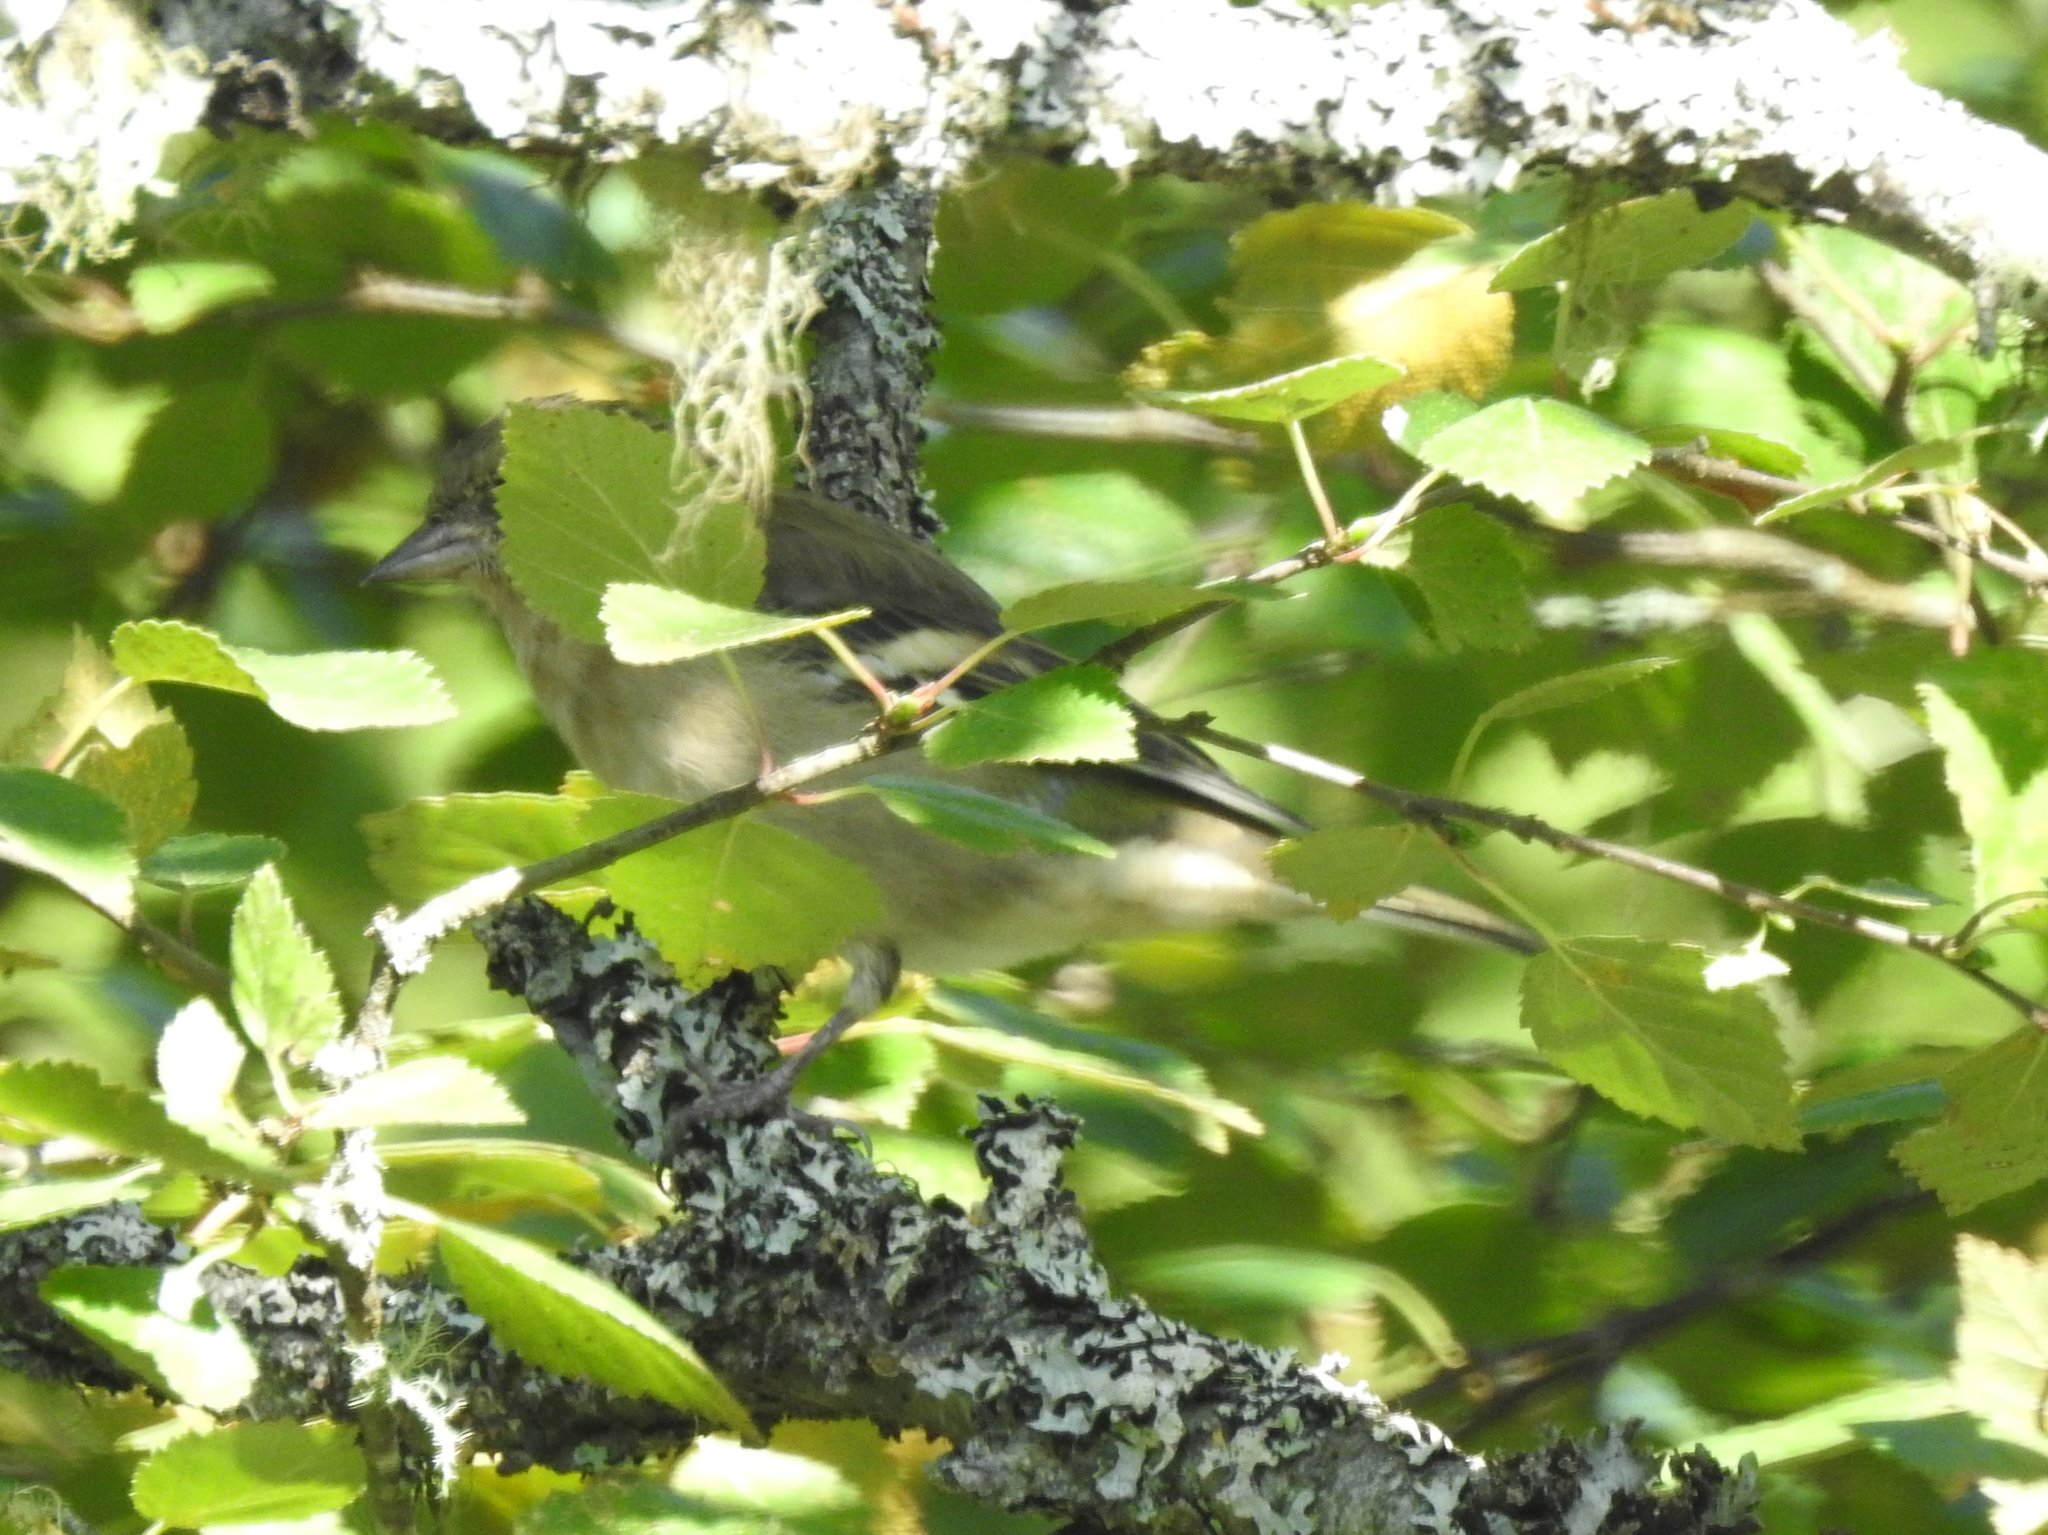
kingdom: Animalia
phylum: Chordata
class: Aves
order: Passeriformes
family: Fringillidae
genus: Fringilla
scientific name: Fringilla coelebs
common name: Common chaffinch
